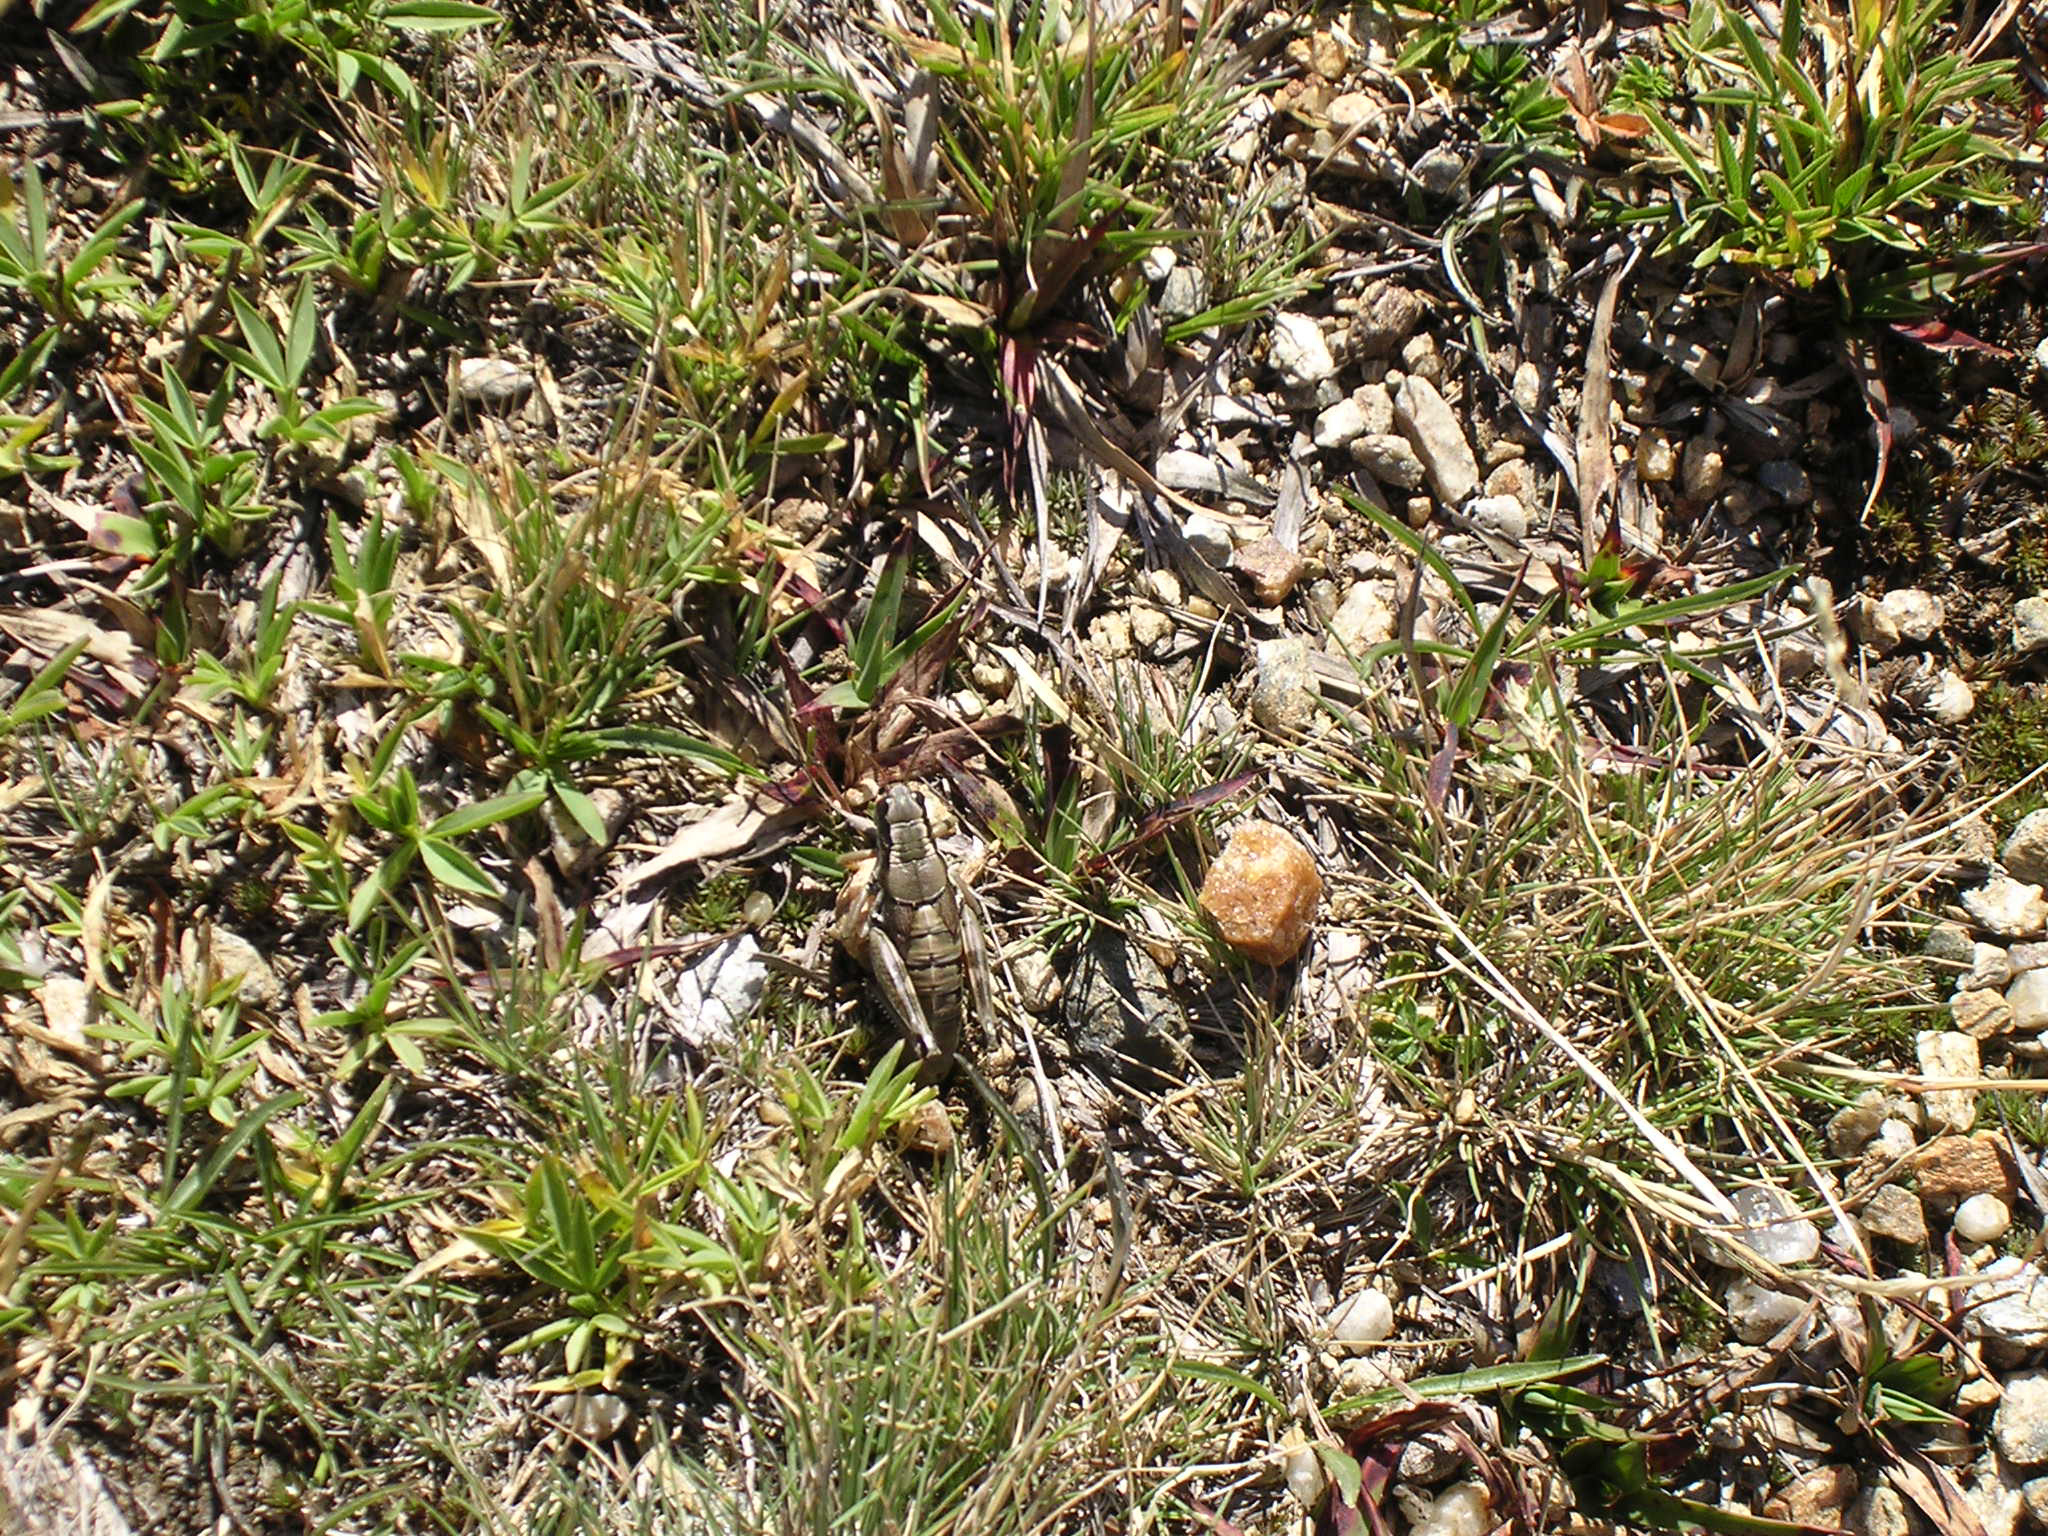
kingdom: Animalia
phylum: Arthropoda
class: Insecta
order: Orthoptera
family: Acrididae
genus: Podisma
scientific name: Podisma pedestris
